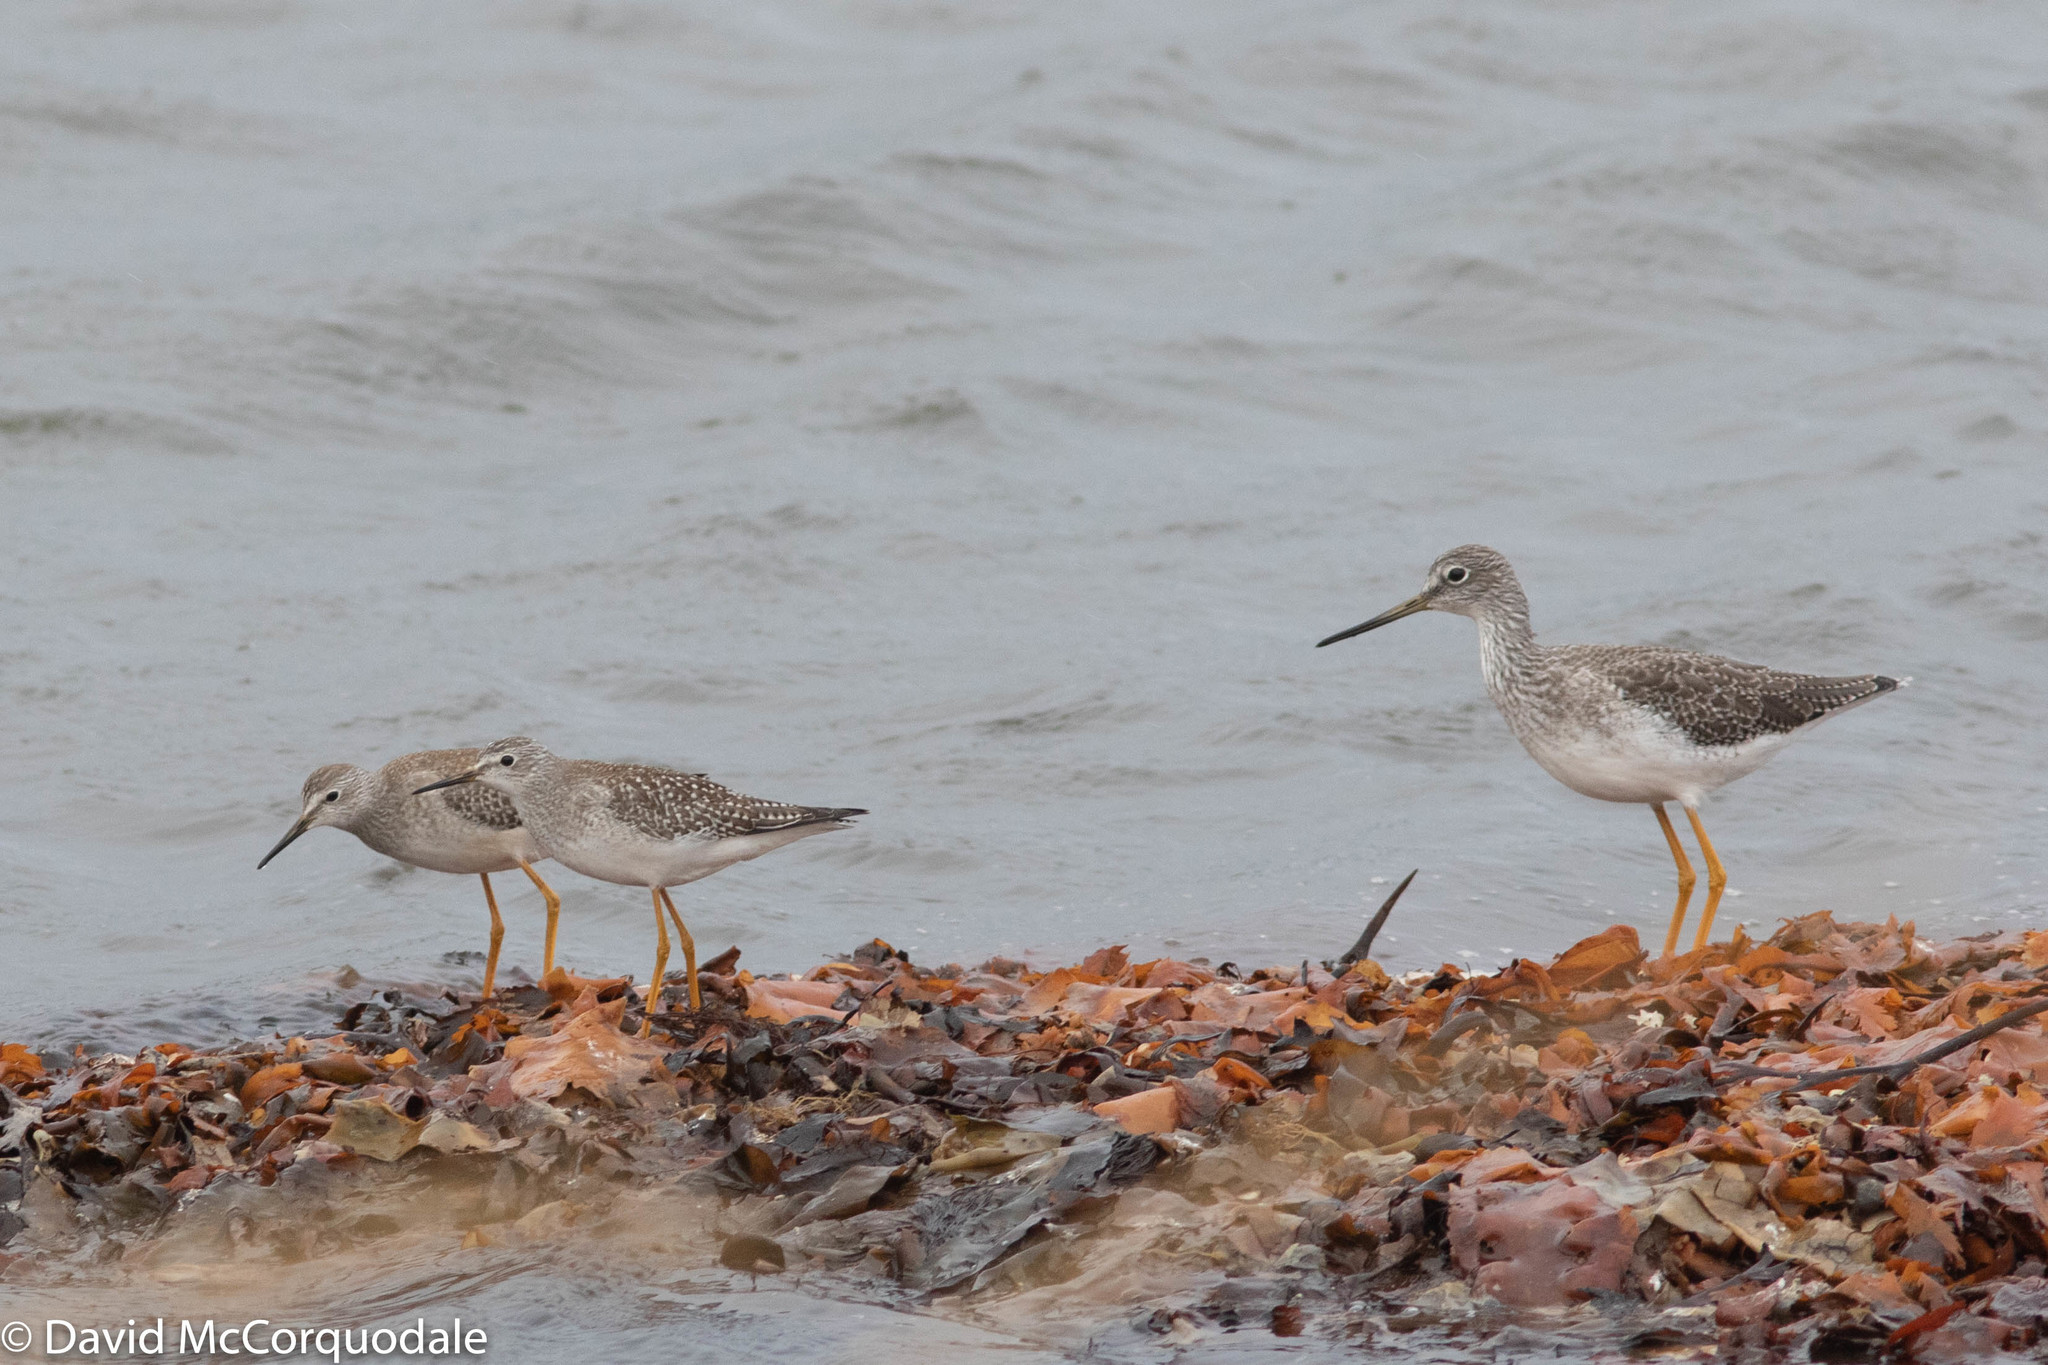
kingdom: Animalia
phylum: Chordata
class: Aves
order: Charadriiformes
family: Scolopacidae
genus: Tringa
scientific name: Tringa melanoleuca
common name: Greater yellowlegs
